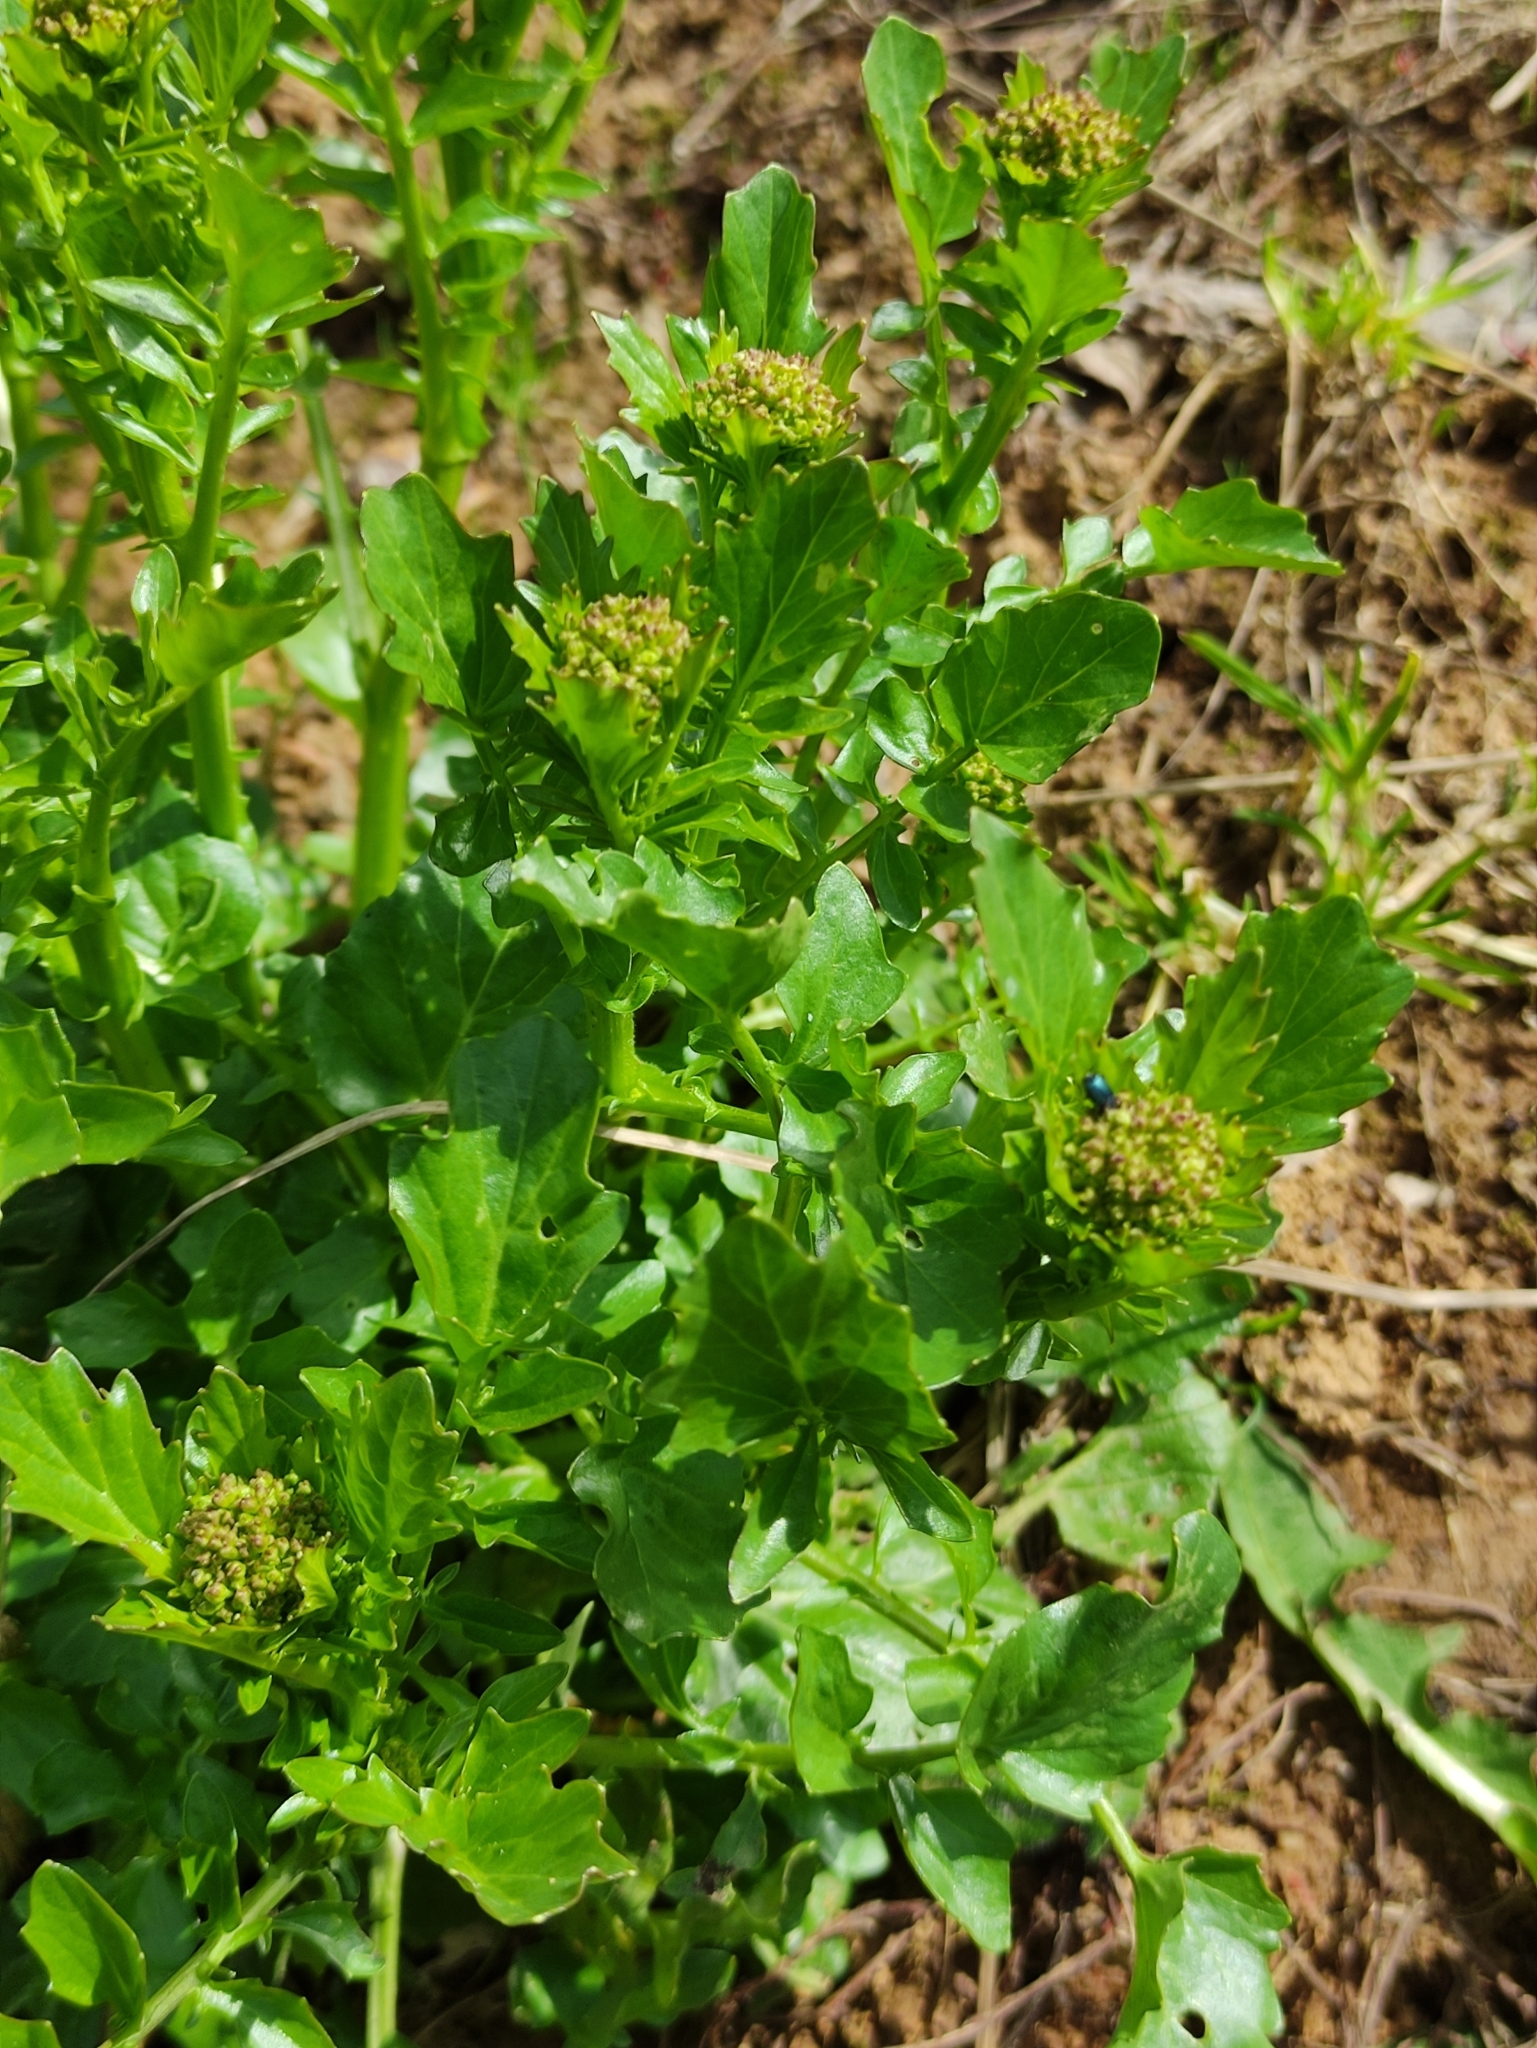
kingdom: Plantae
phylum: Tracheophyta
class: Magnoliopsida
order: Brassicales
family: Brassicaceae
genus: Barbarea
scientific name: Barbarea vulgaris
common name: Cressy-greens
